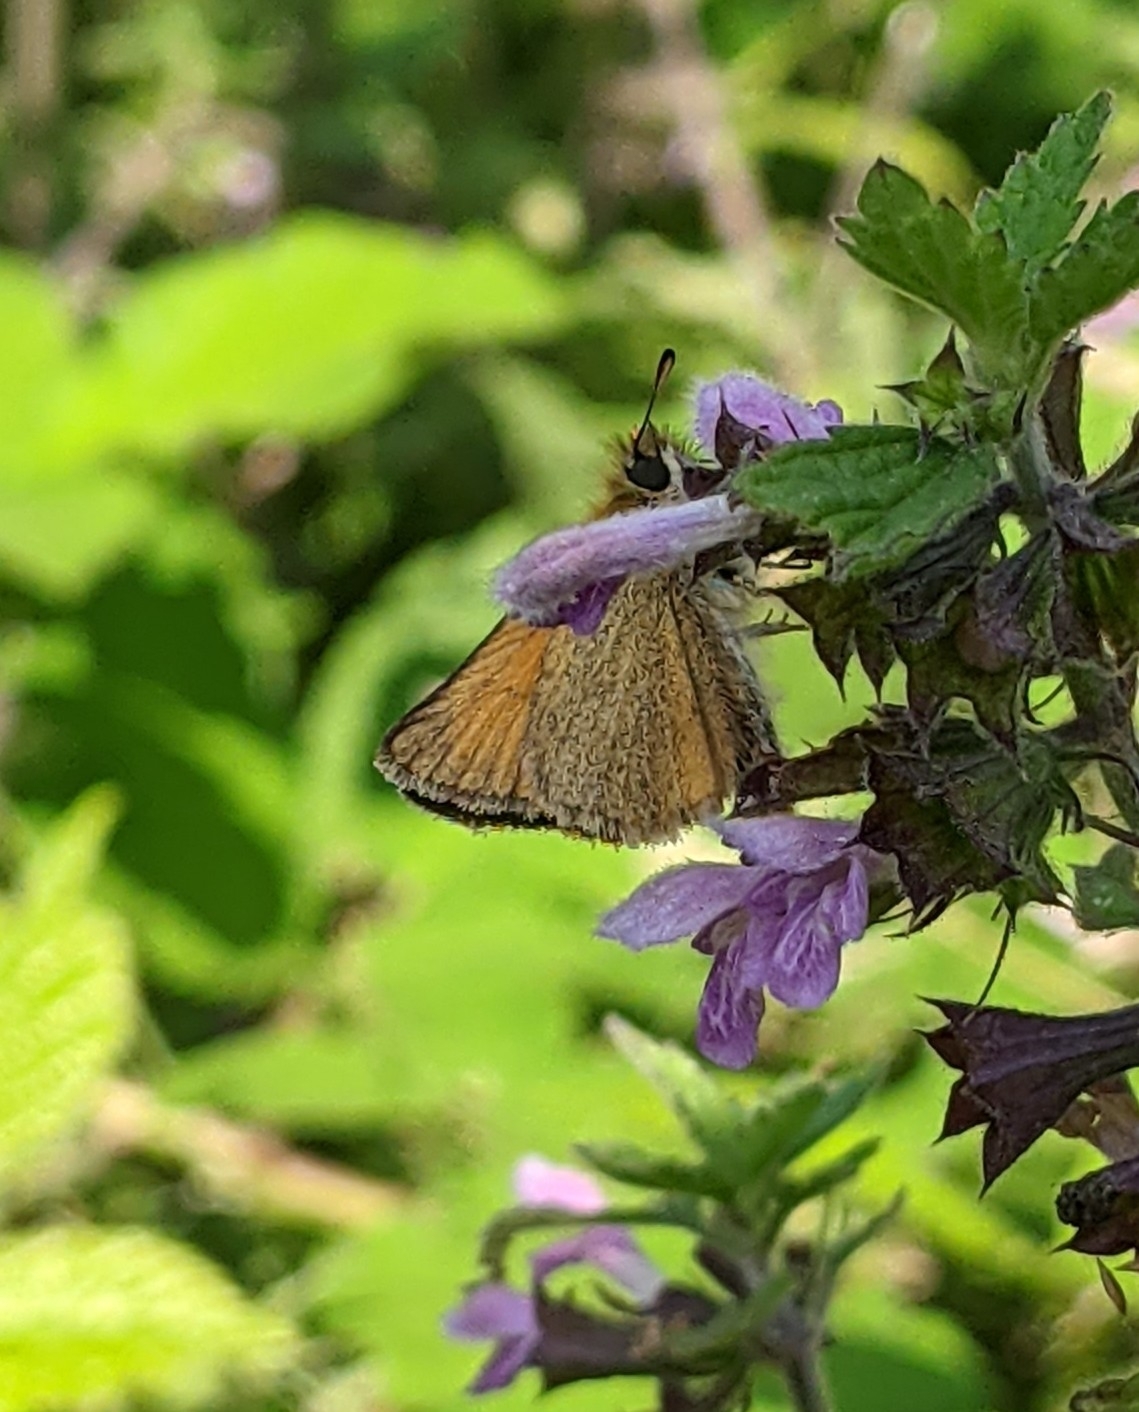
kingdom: Animalia
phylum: Arthropoda
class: Insecta
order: Lepidoptera
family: Hesperiidae
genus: Thymelicus
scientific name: Thymelicus lineola
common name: Essex skipper
